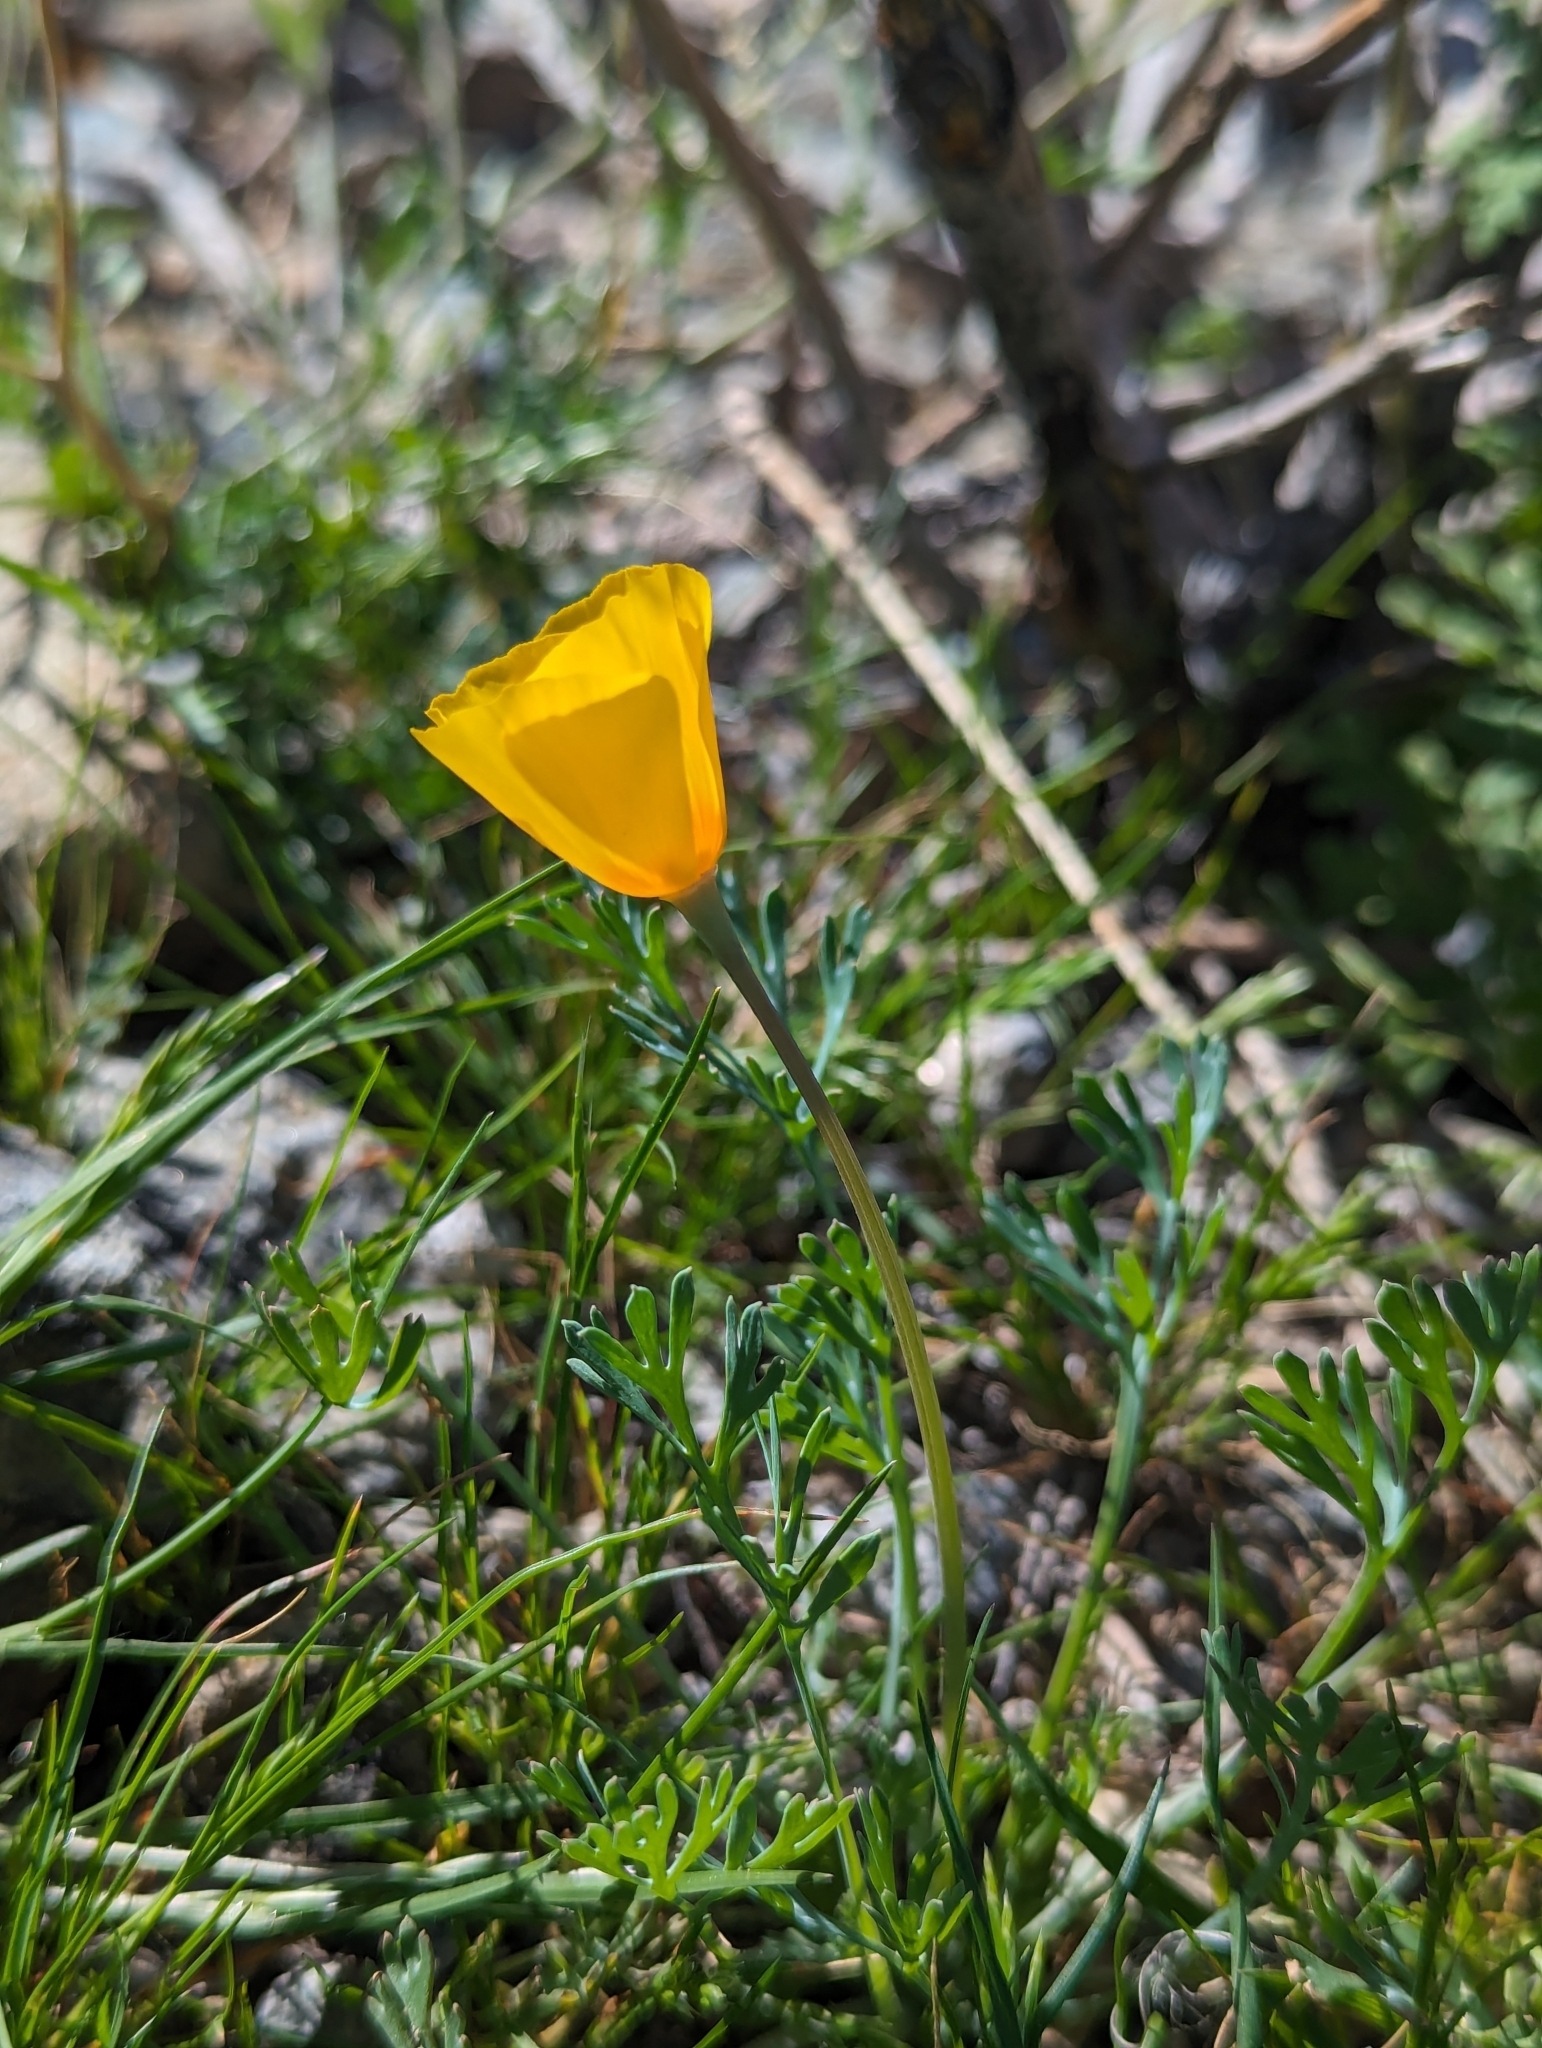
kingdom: Plantae
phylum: Tracheophyta
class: Magnoliopsida
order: Ranunculales
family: Papaveraceae
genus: Eschscholzia
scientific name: Eschscholzia californica
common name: California poppy
